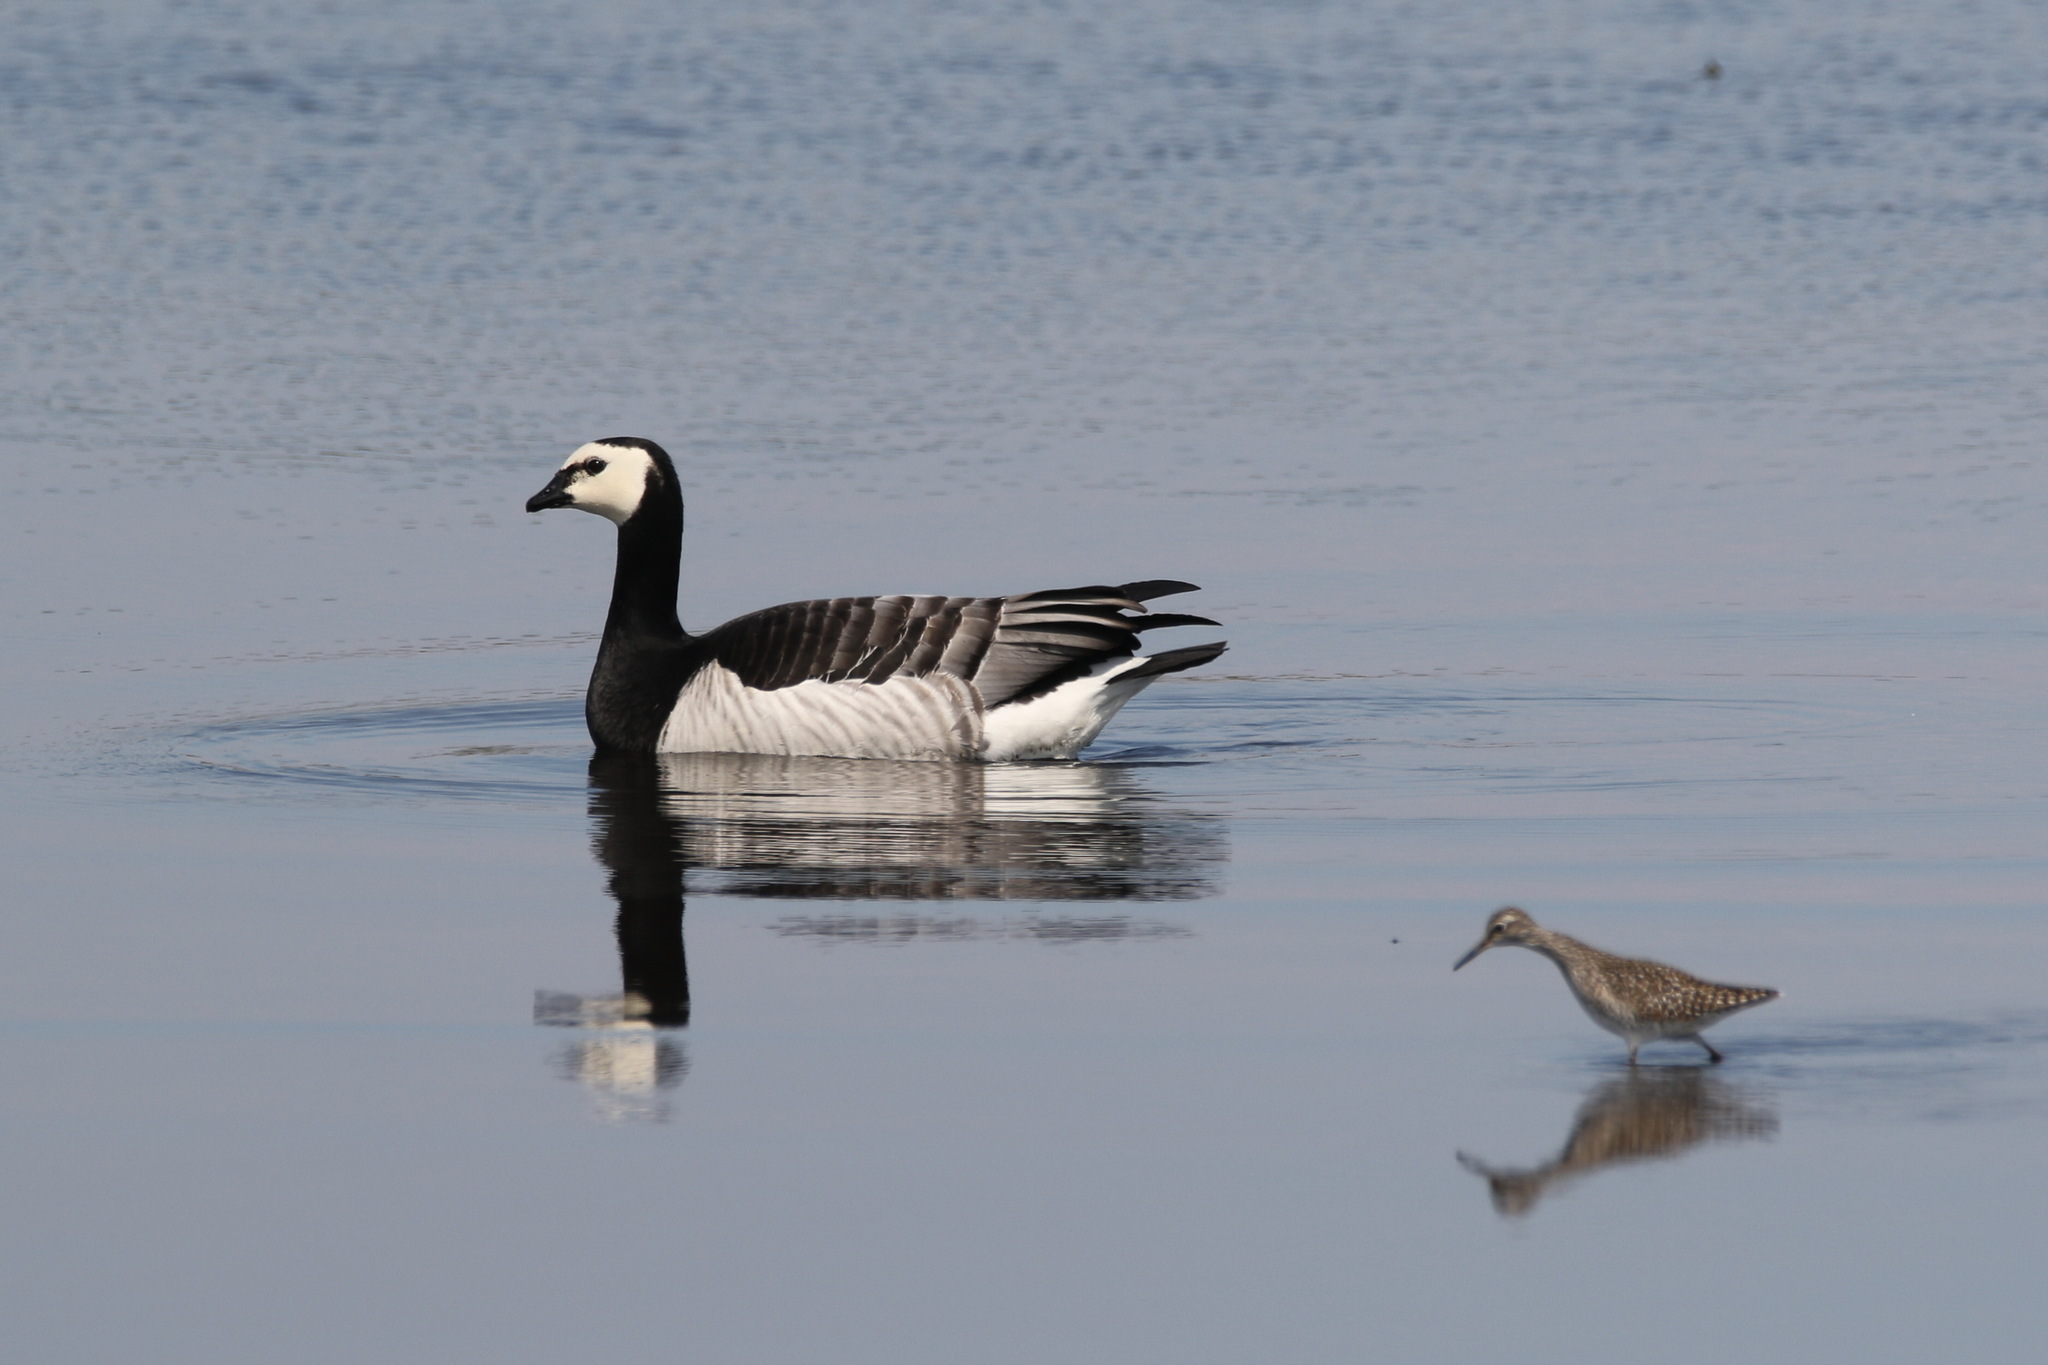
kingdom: Animalia
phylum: Chordata
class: Aves
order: Anseriformes
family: Anatidae
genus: Branta
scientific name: Branta leucopsis
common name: Barnacle goose
